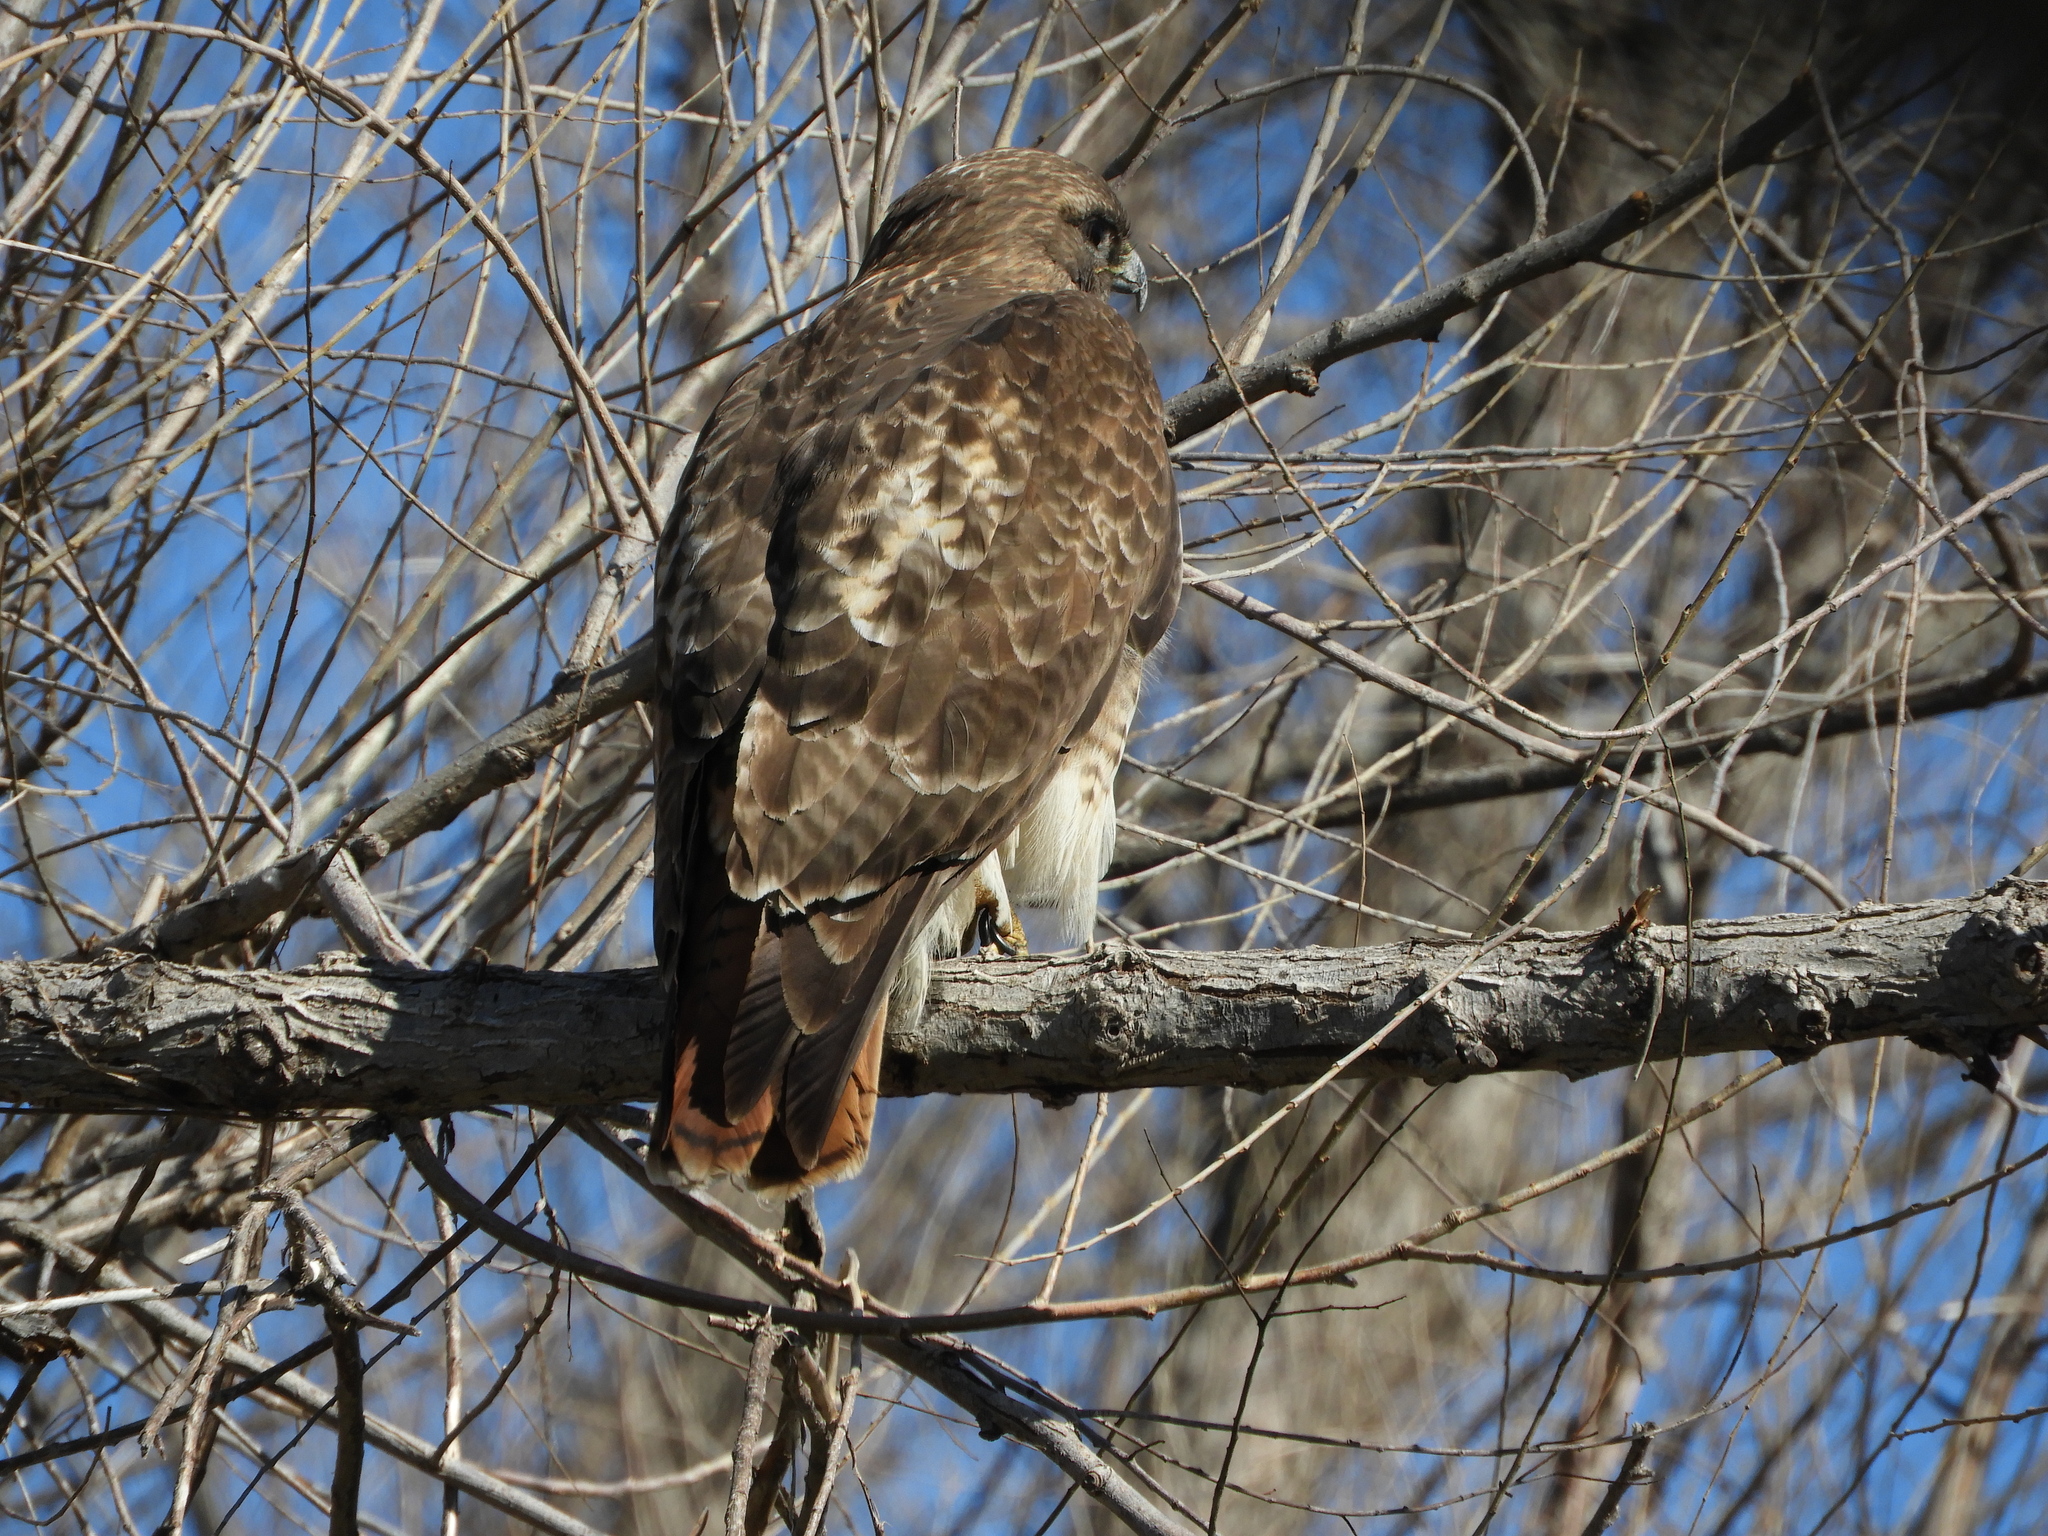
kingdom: Animalia
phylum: Chordata
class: Aves
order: Accipitriformes
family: Accipitridae
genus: Buteo
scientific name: Buteo jamaicensis
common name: Red-tailed hawk
